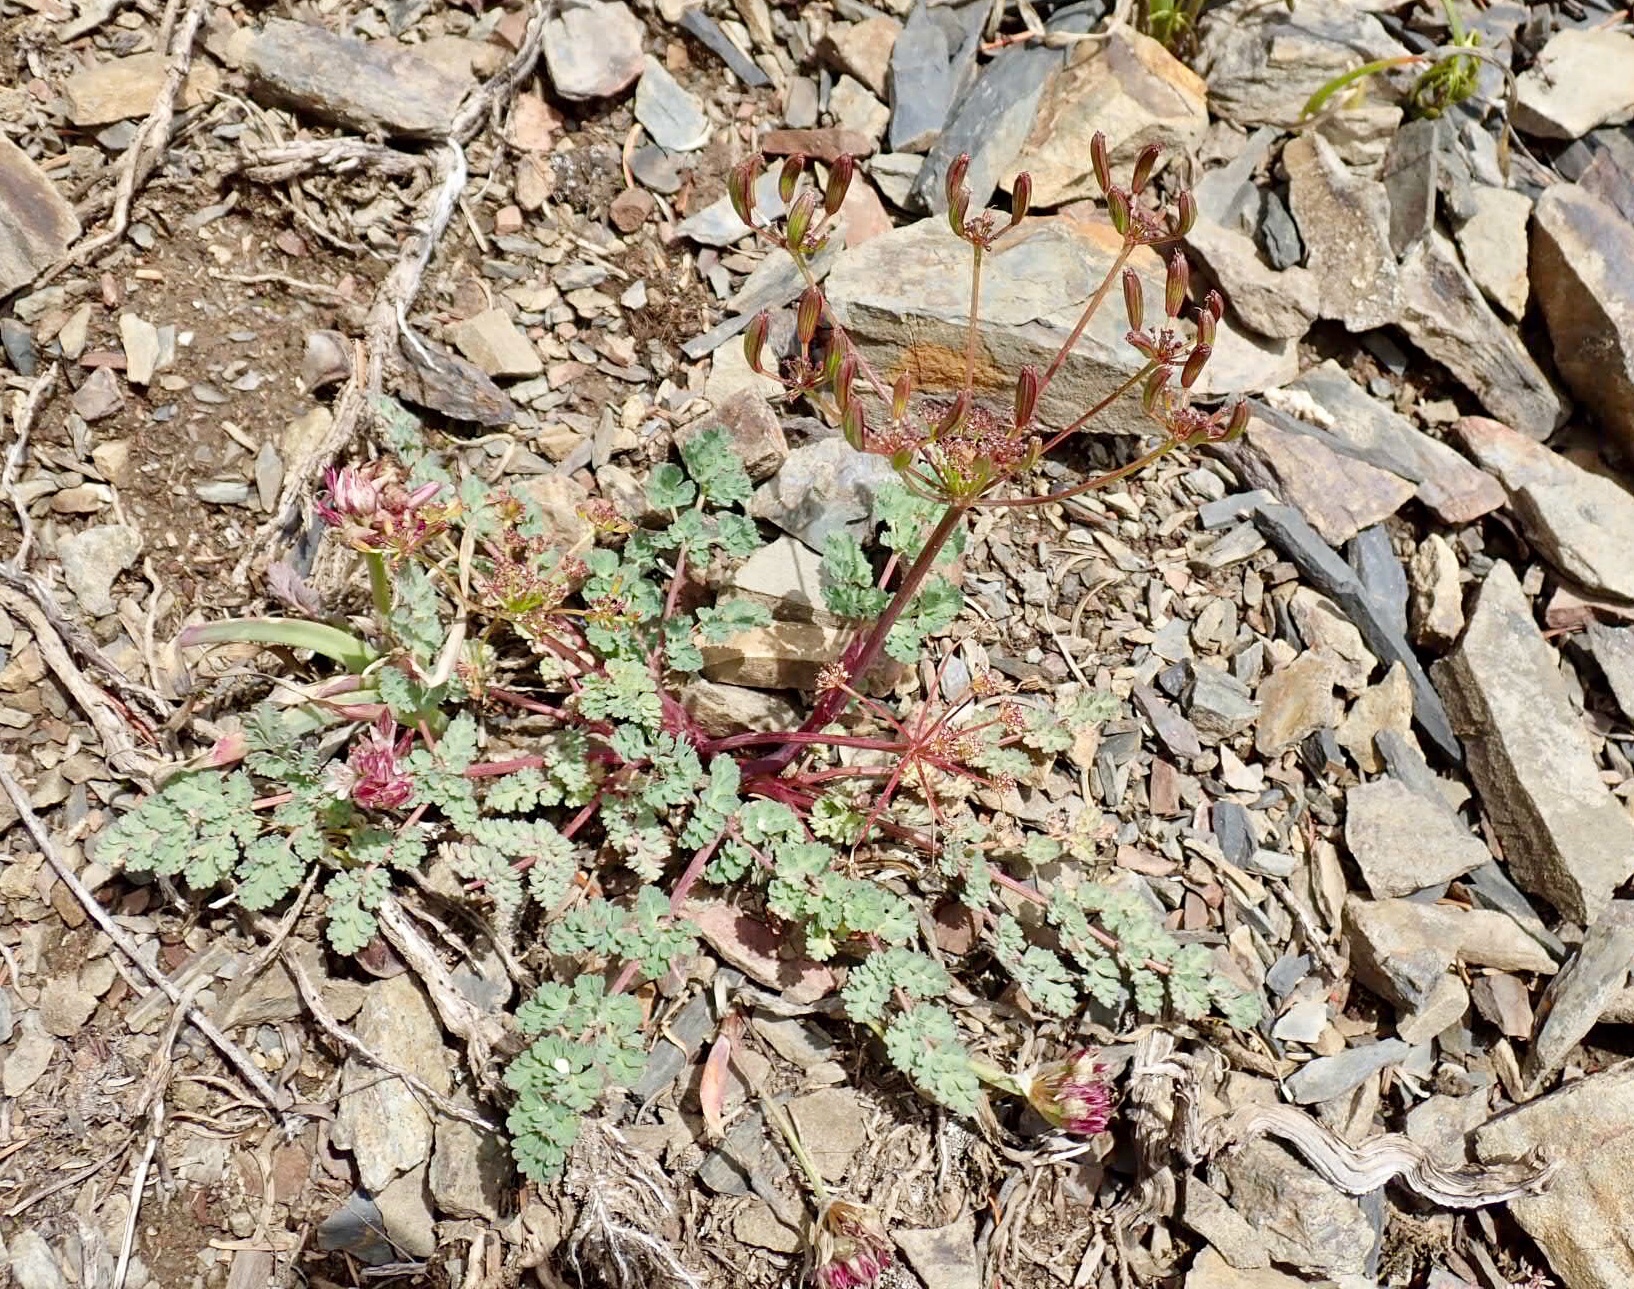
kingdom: Plantae
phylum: Tracheophyta
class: Magnoliopsida
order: Apiales
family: Apiaceae
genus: Lomatium
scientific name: Lomatium martindalei
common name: Cascade desert-parsley
